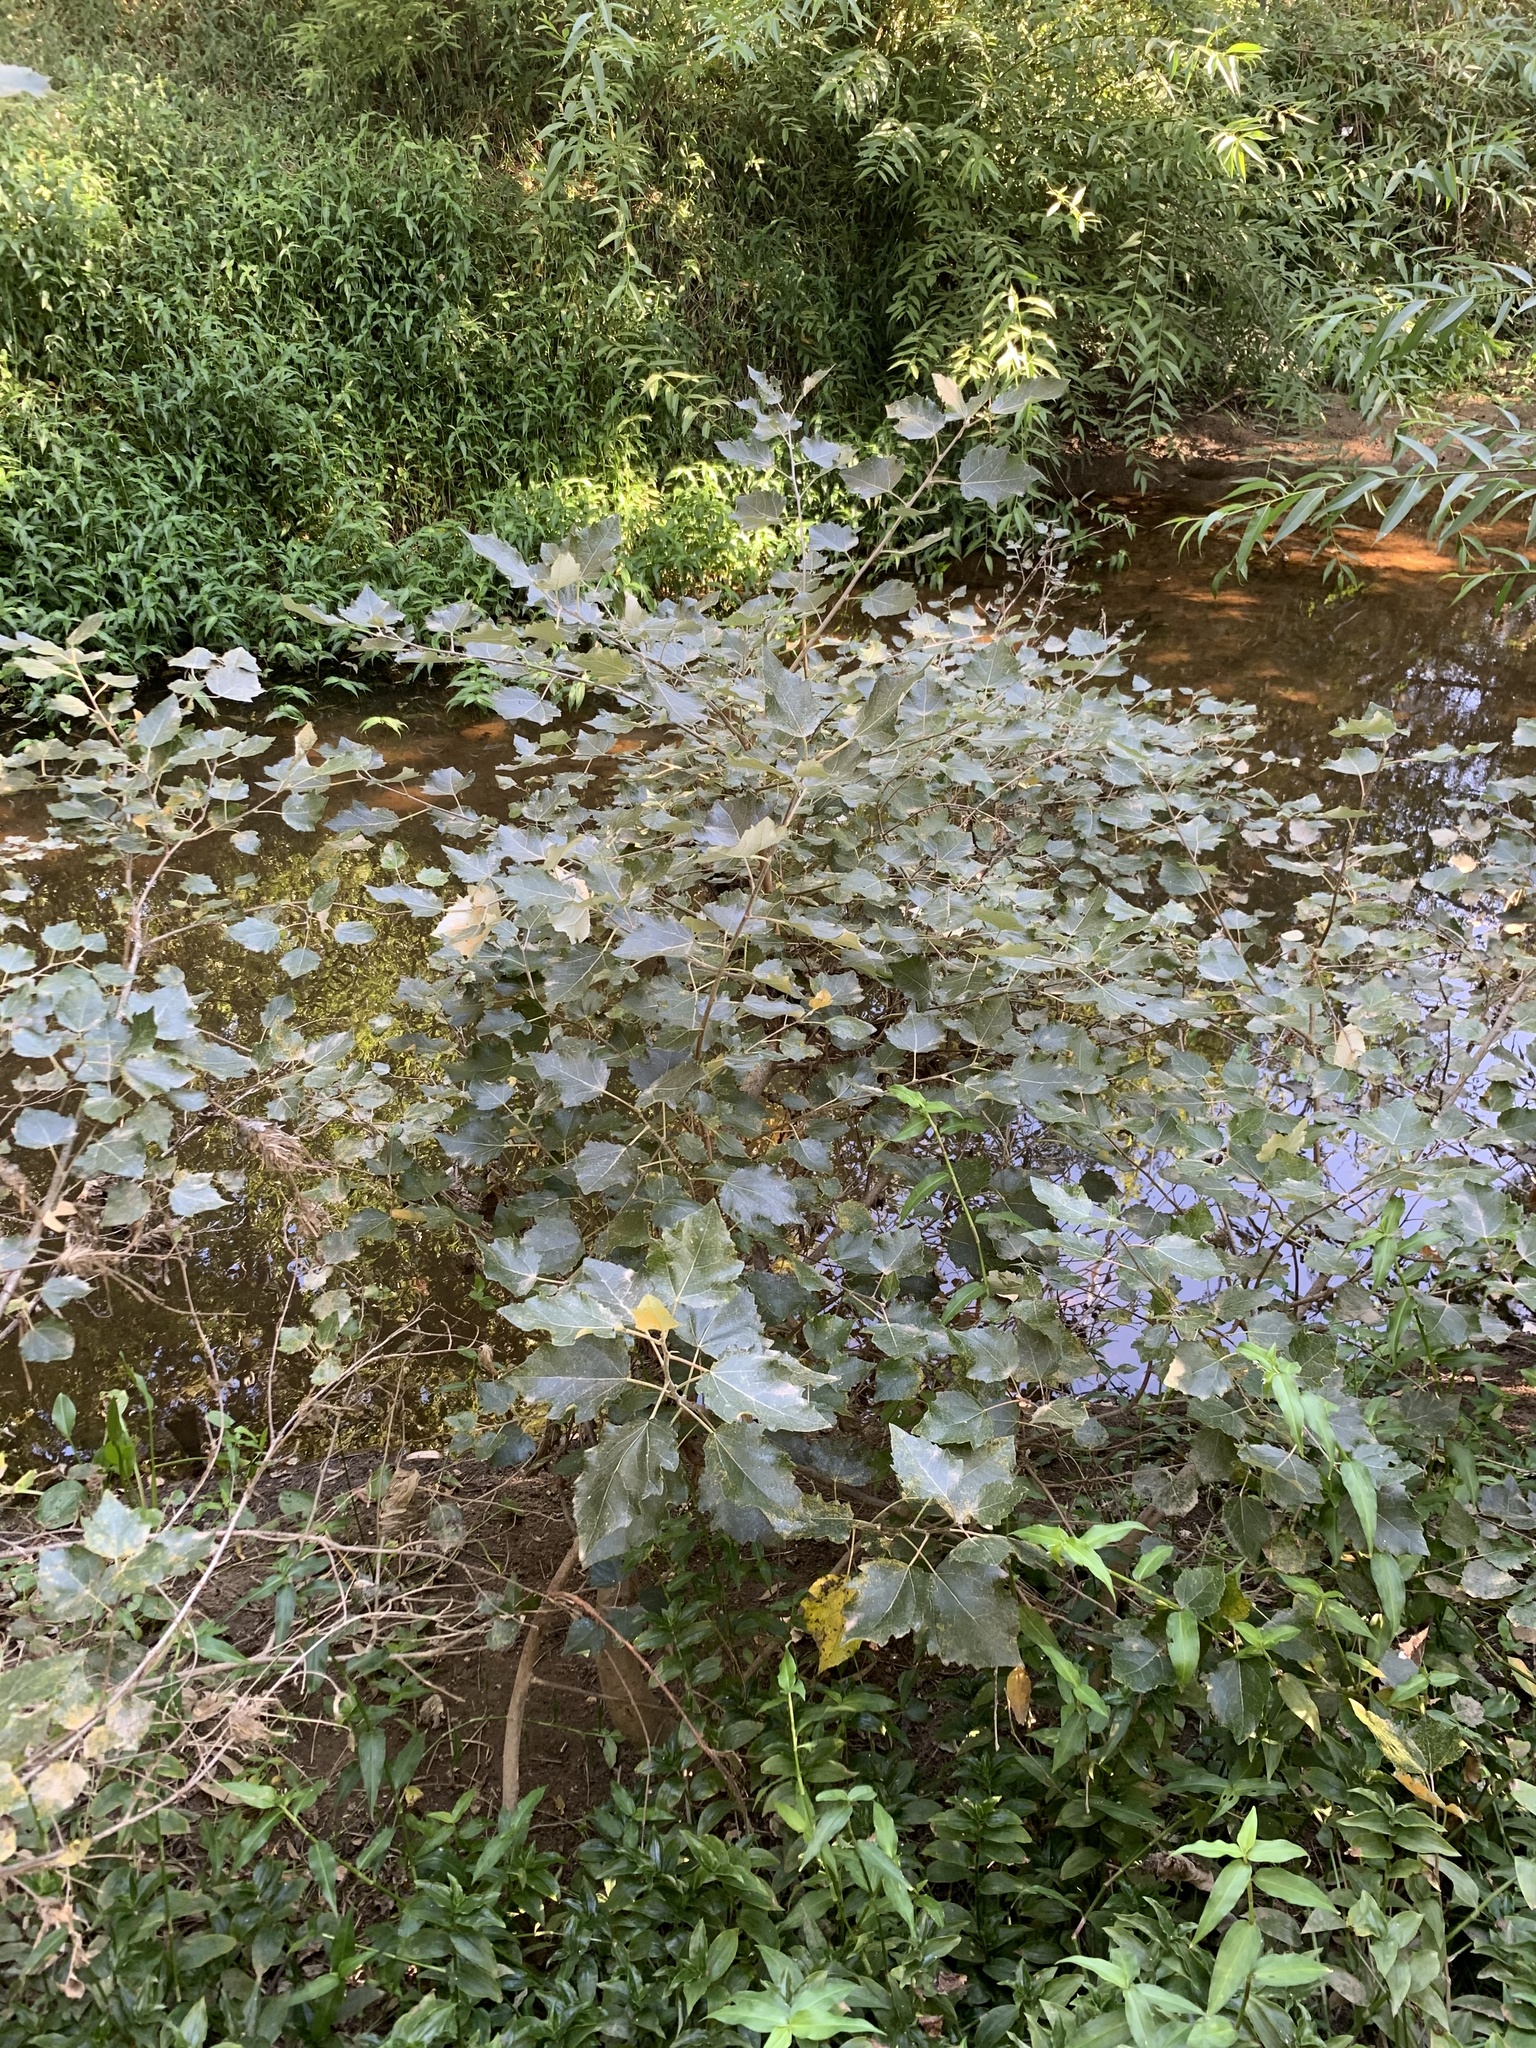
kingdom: Plantae
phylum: Tracheophyta
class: Magnoliopsida
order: Malpighiales
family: Salicaceae
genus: Populus
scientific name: Populus canescens
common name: Gray poplar
